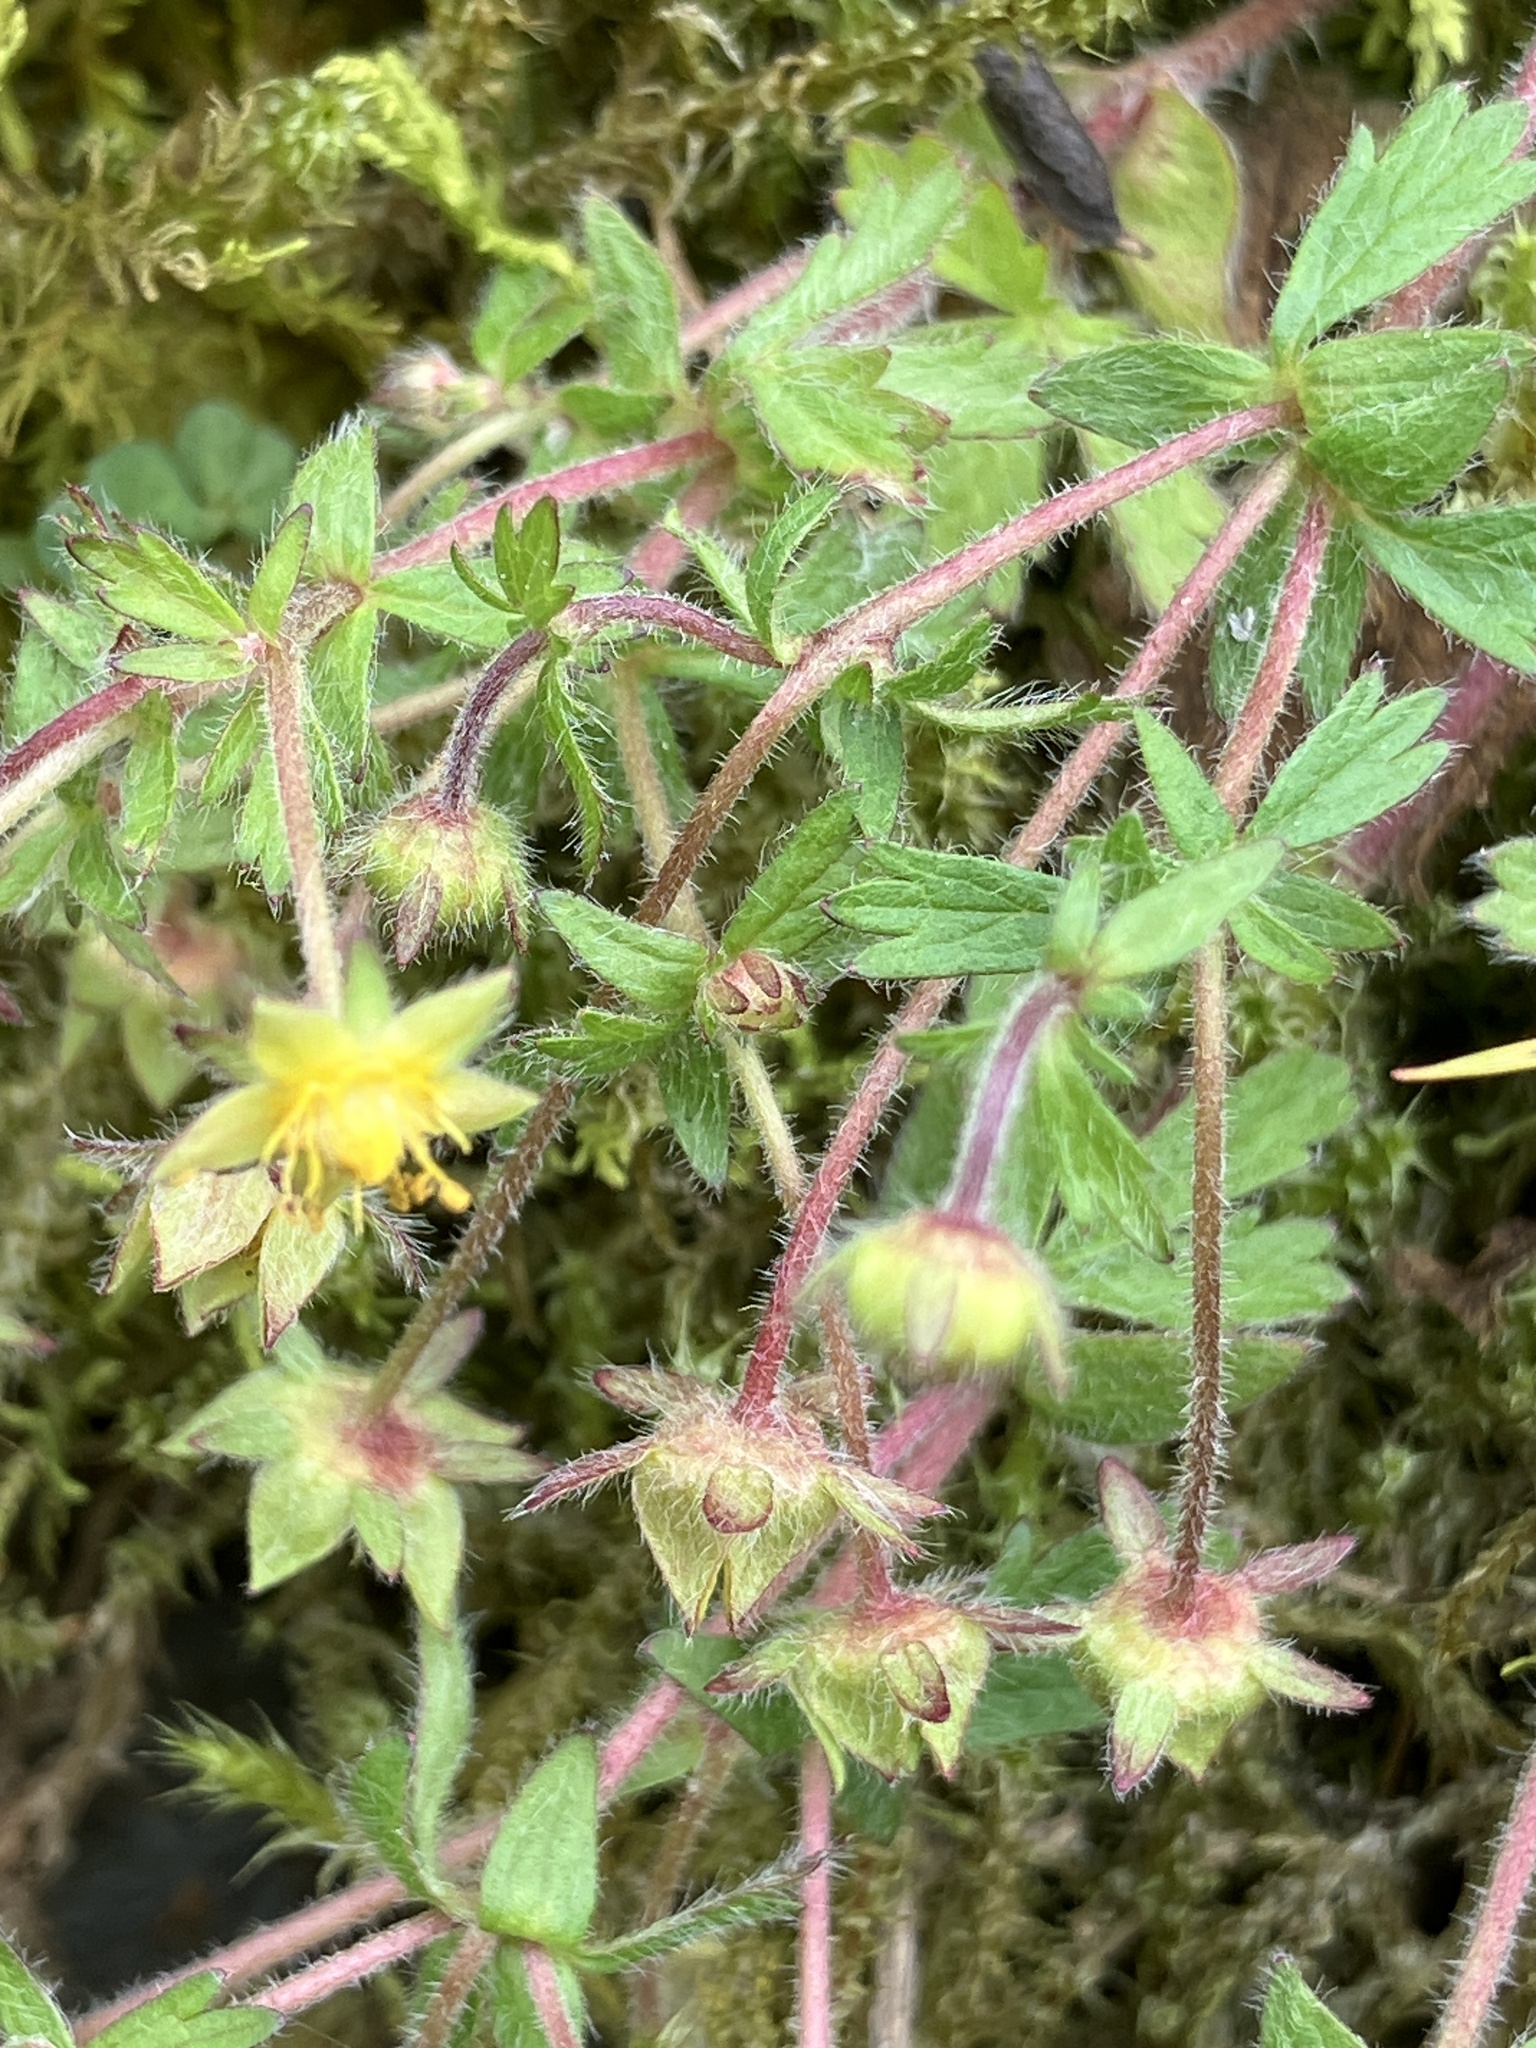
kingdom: Plantae
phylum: Tracheophyta
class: Magnoliopsida
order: Rosales
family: Rosaceae
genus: Potentilla
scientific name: Potentilla heptaphylla
